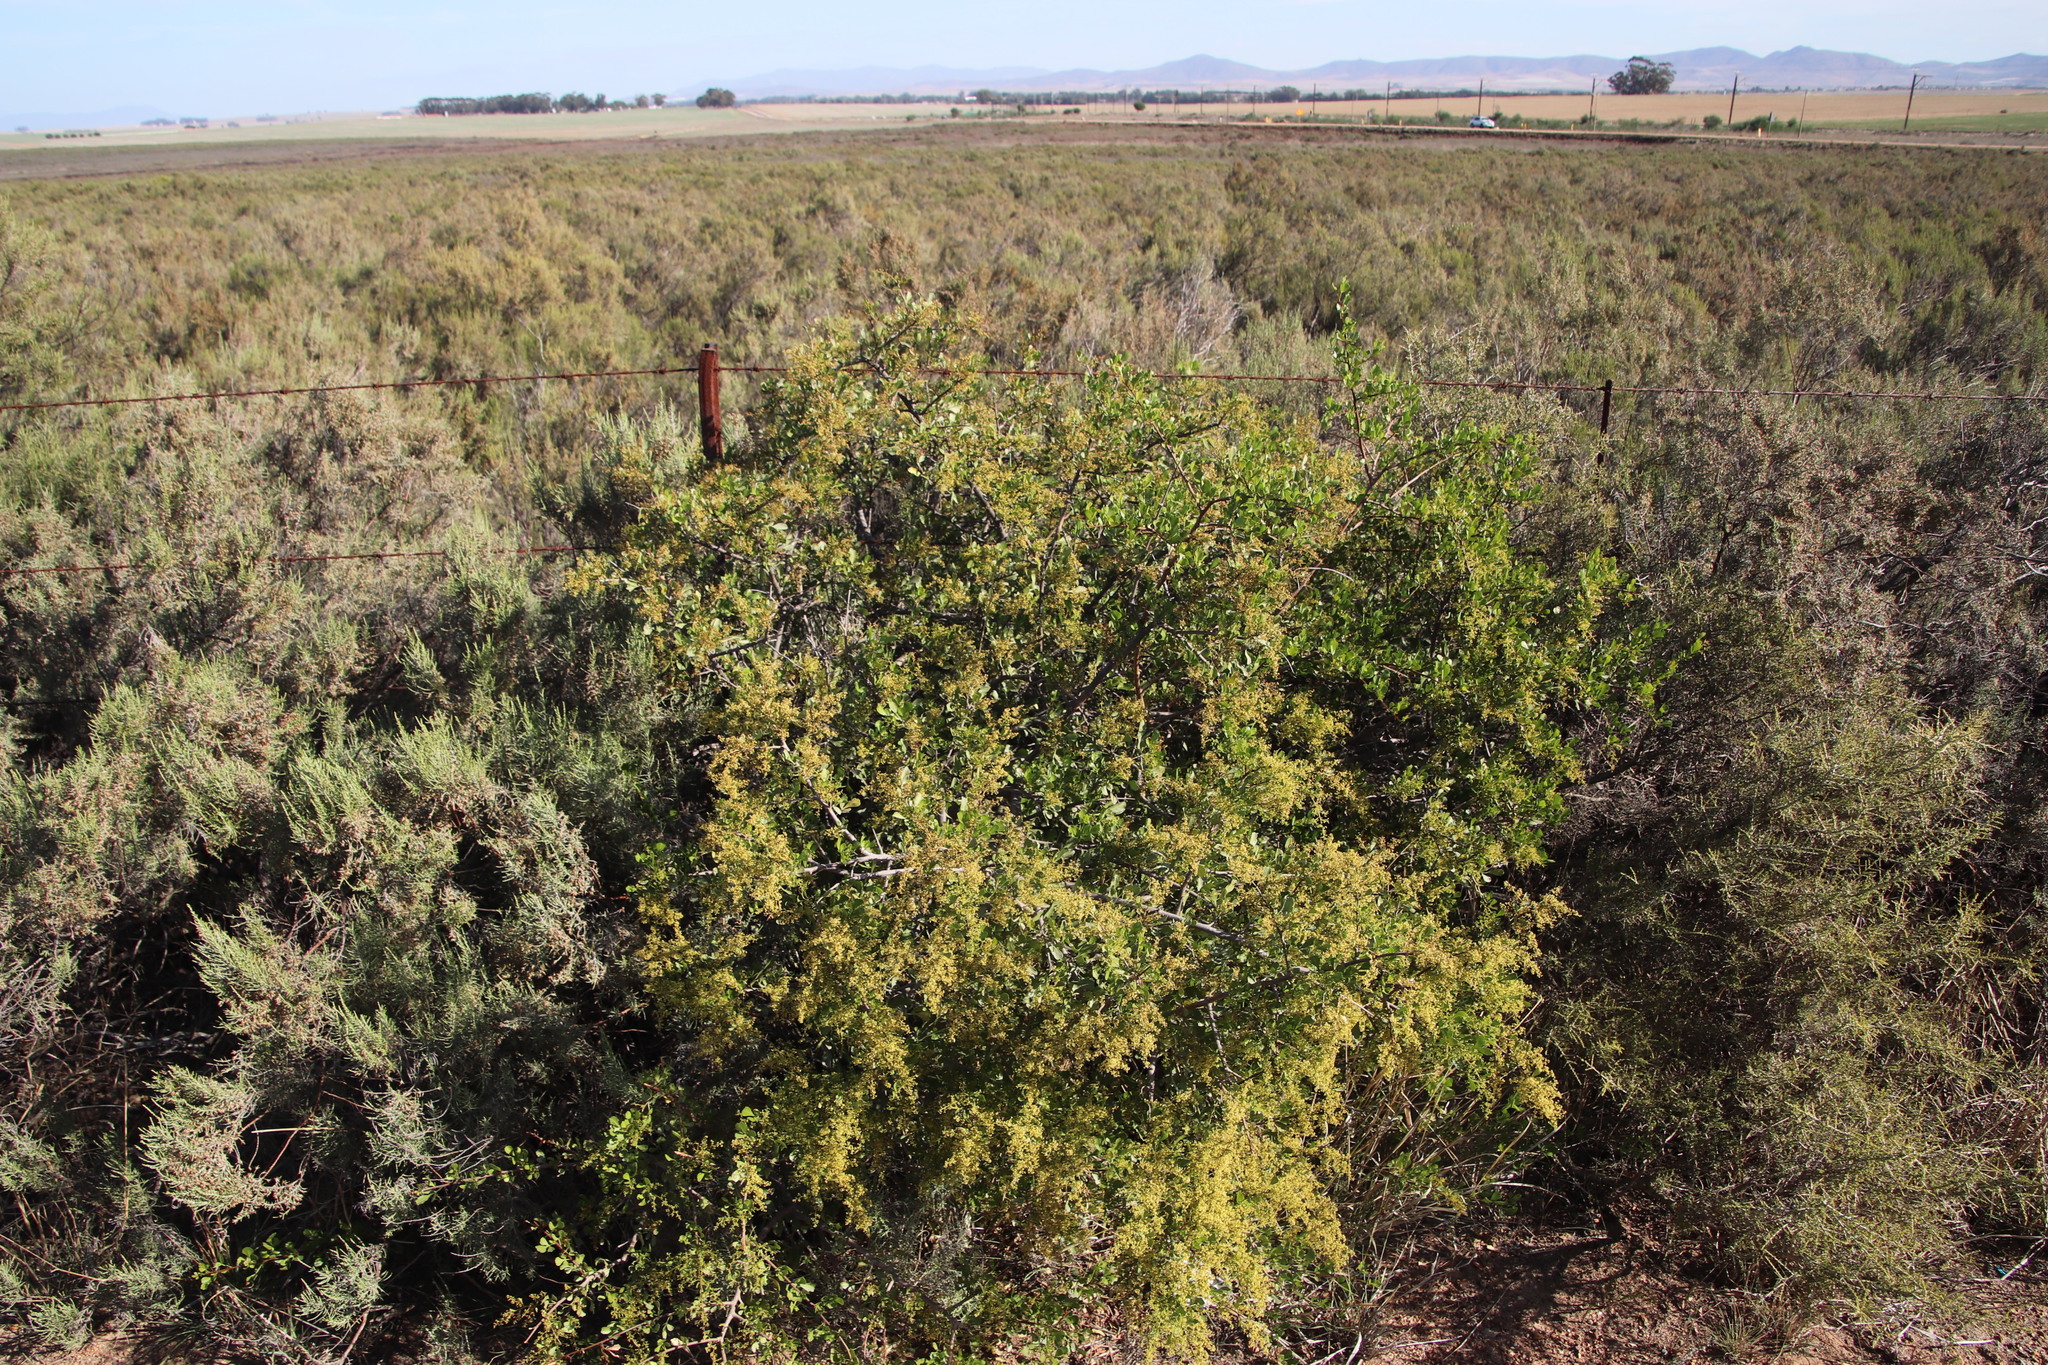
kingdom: Plantae
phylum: Tracheophyta
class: Magnoliopsida
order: Sapindales
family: Anacardiaceae
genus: Searsia
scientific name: Searsia undulata
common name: Namaqua kunibush
